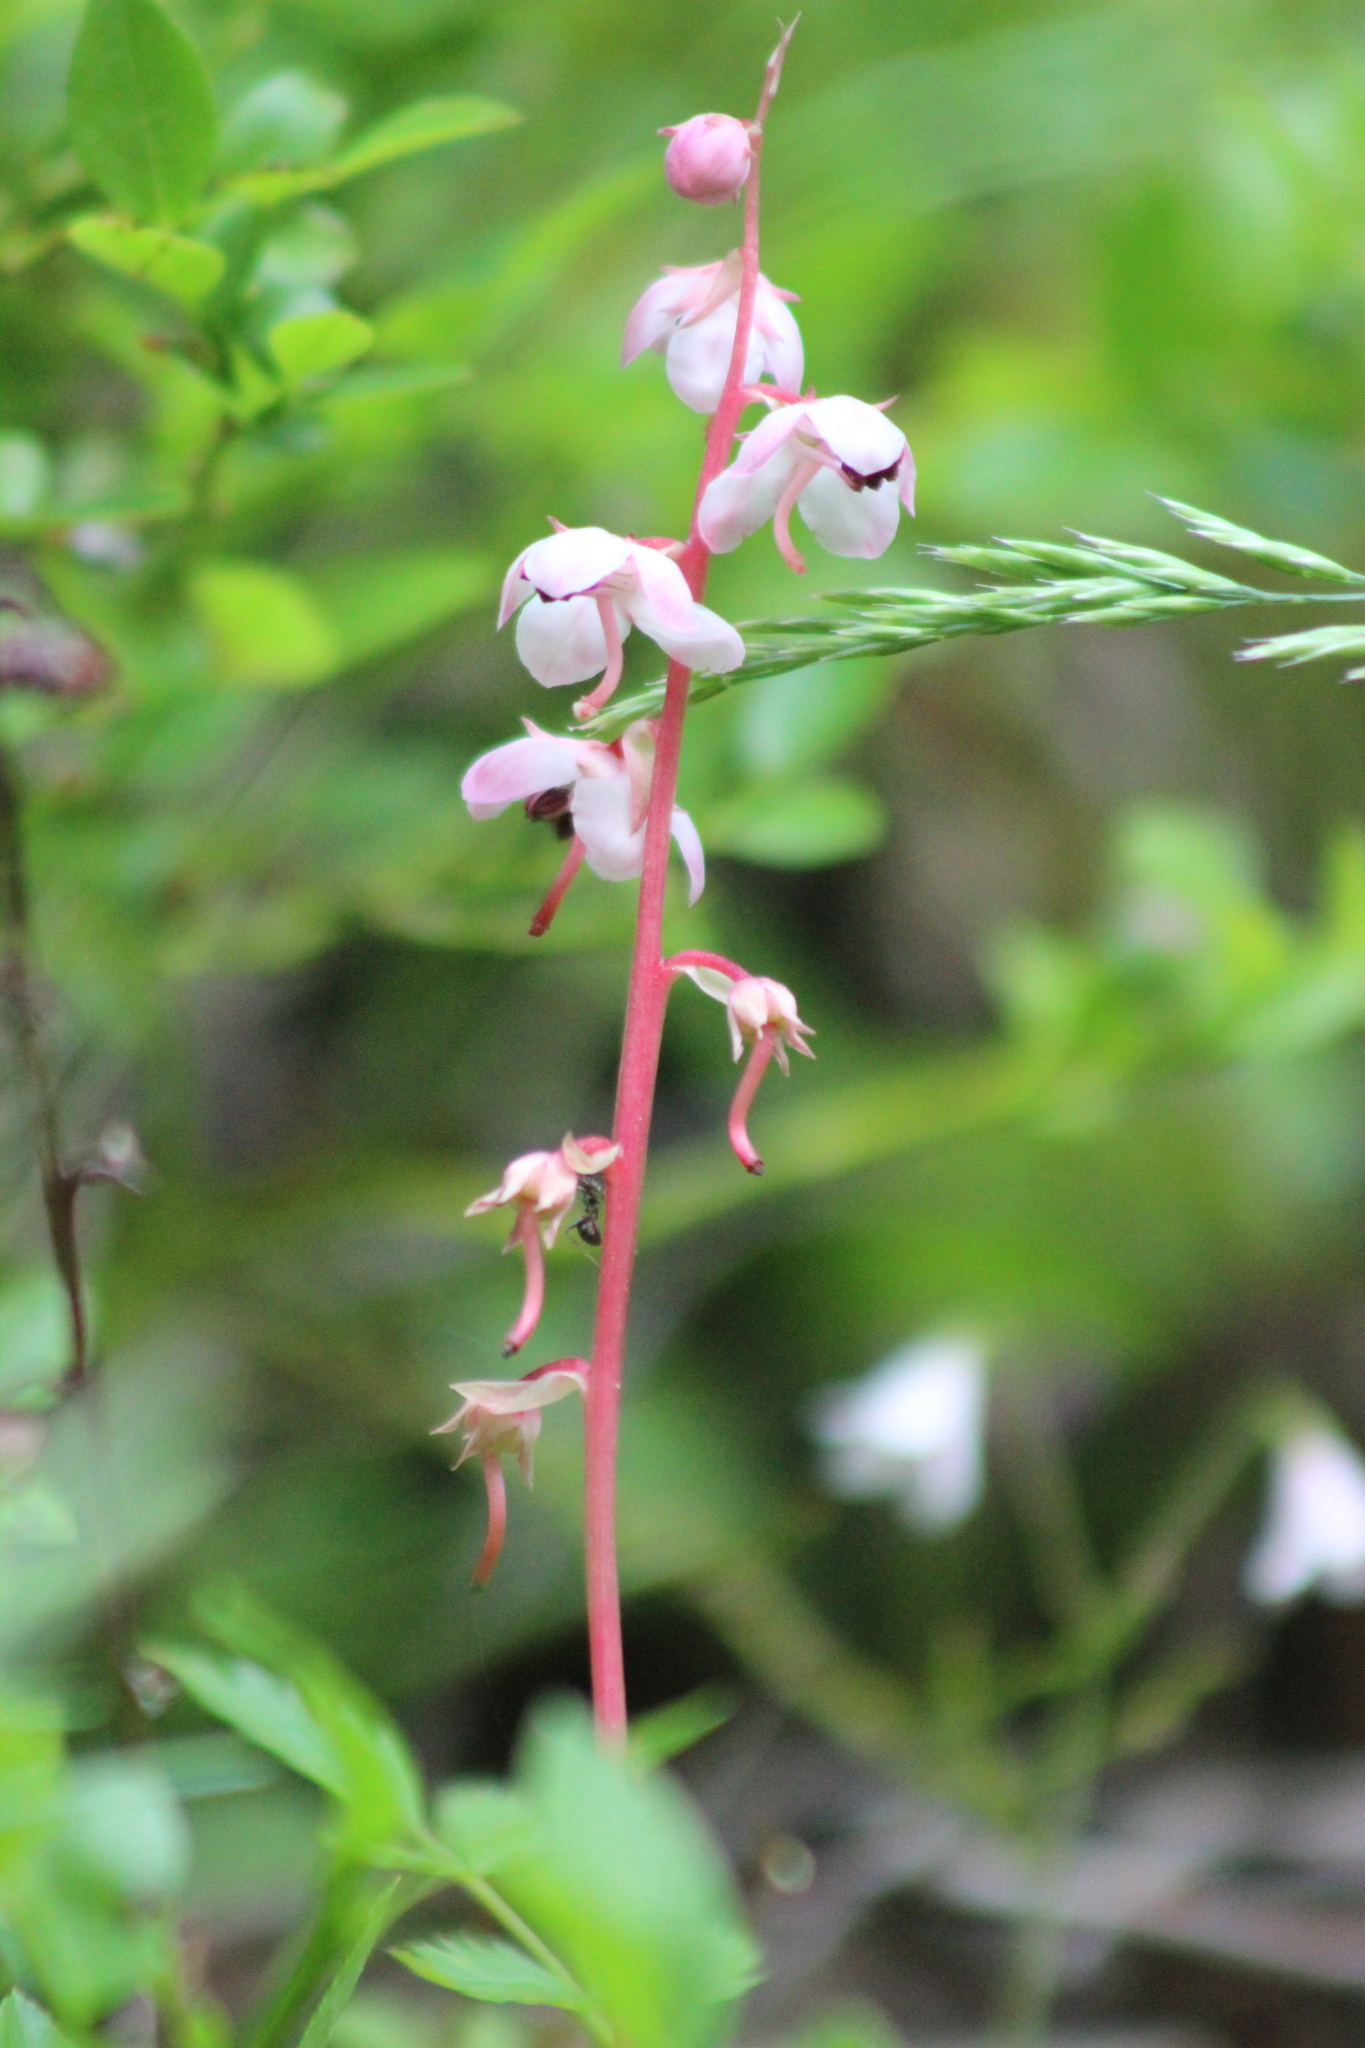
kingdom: Plantae
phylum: Tracheophyta
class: Magnoliopsida
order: Ericales
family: Ericaceae
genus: Pyrola
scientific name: Pyrola asarifolia
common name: Bog wintergreen
